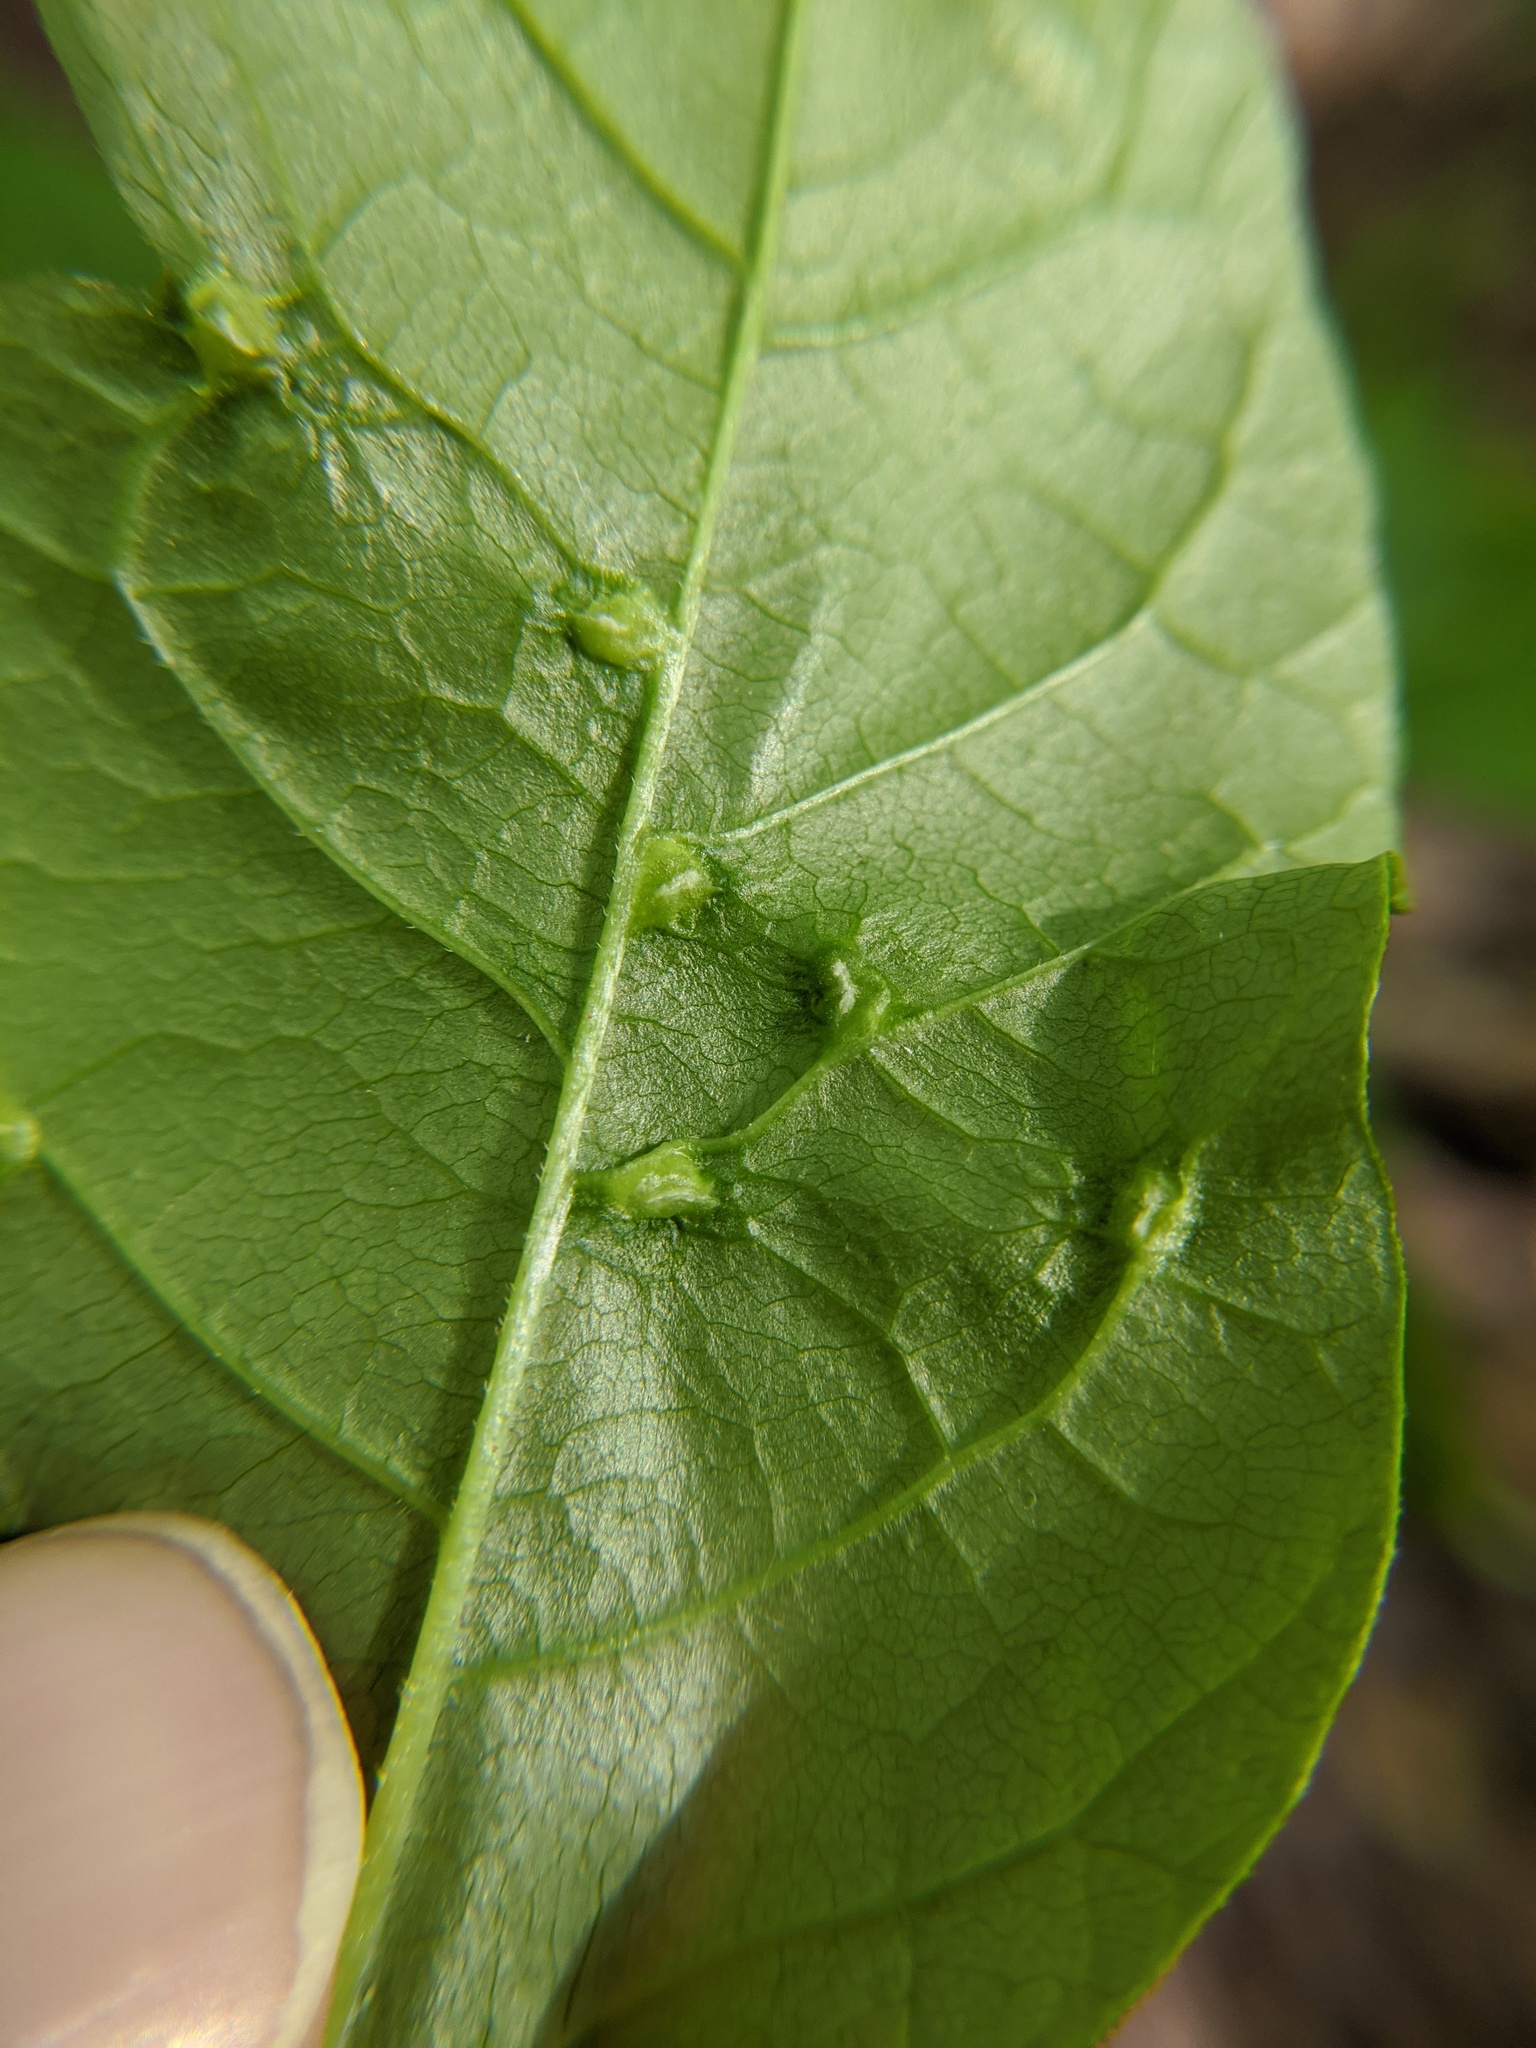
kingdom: Animalia
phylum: Arthropoda
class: Arachnida
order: Trombidiformes
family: Eriophyidae
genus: Aceria
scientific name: Aceria fraxinicola
